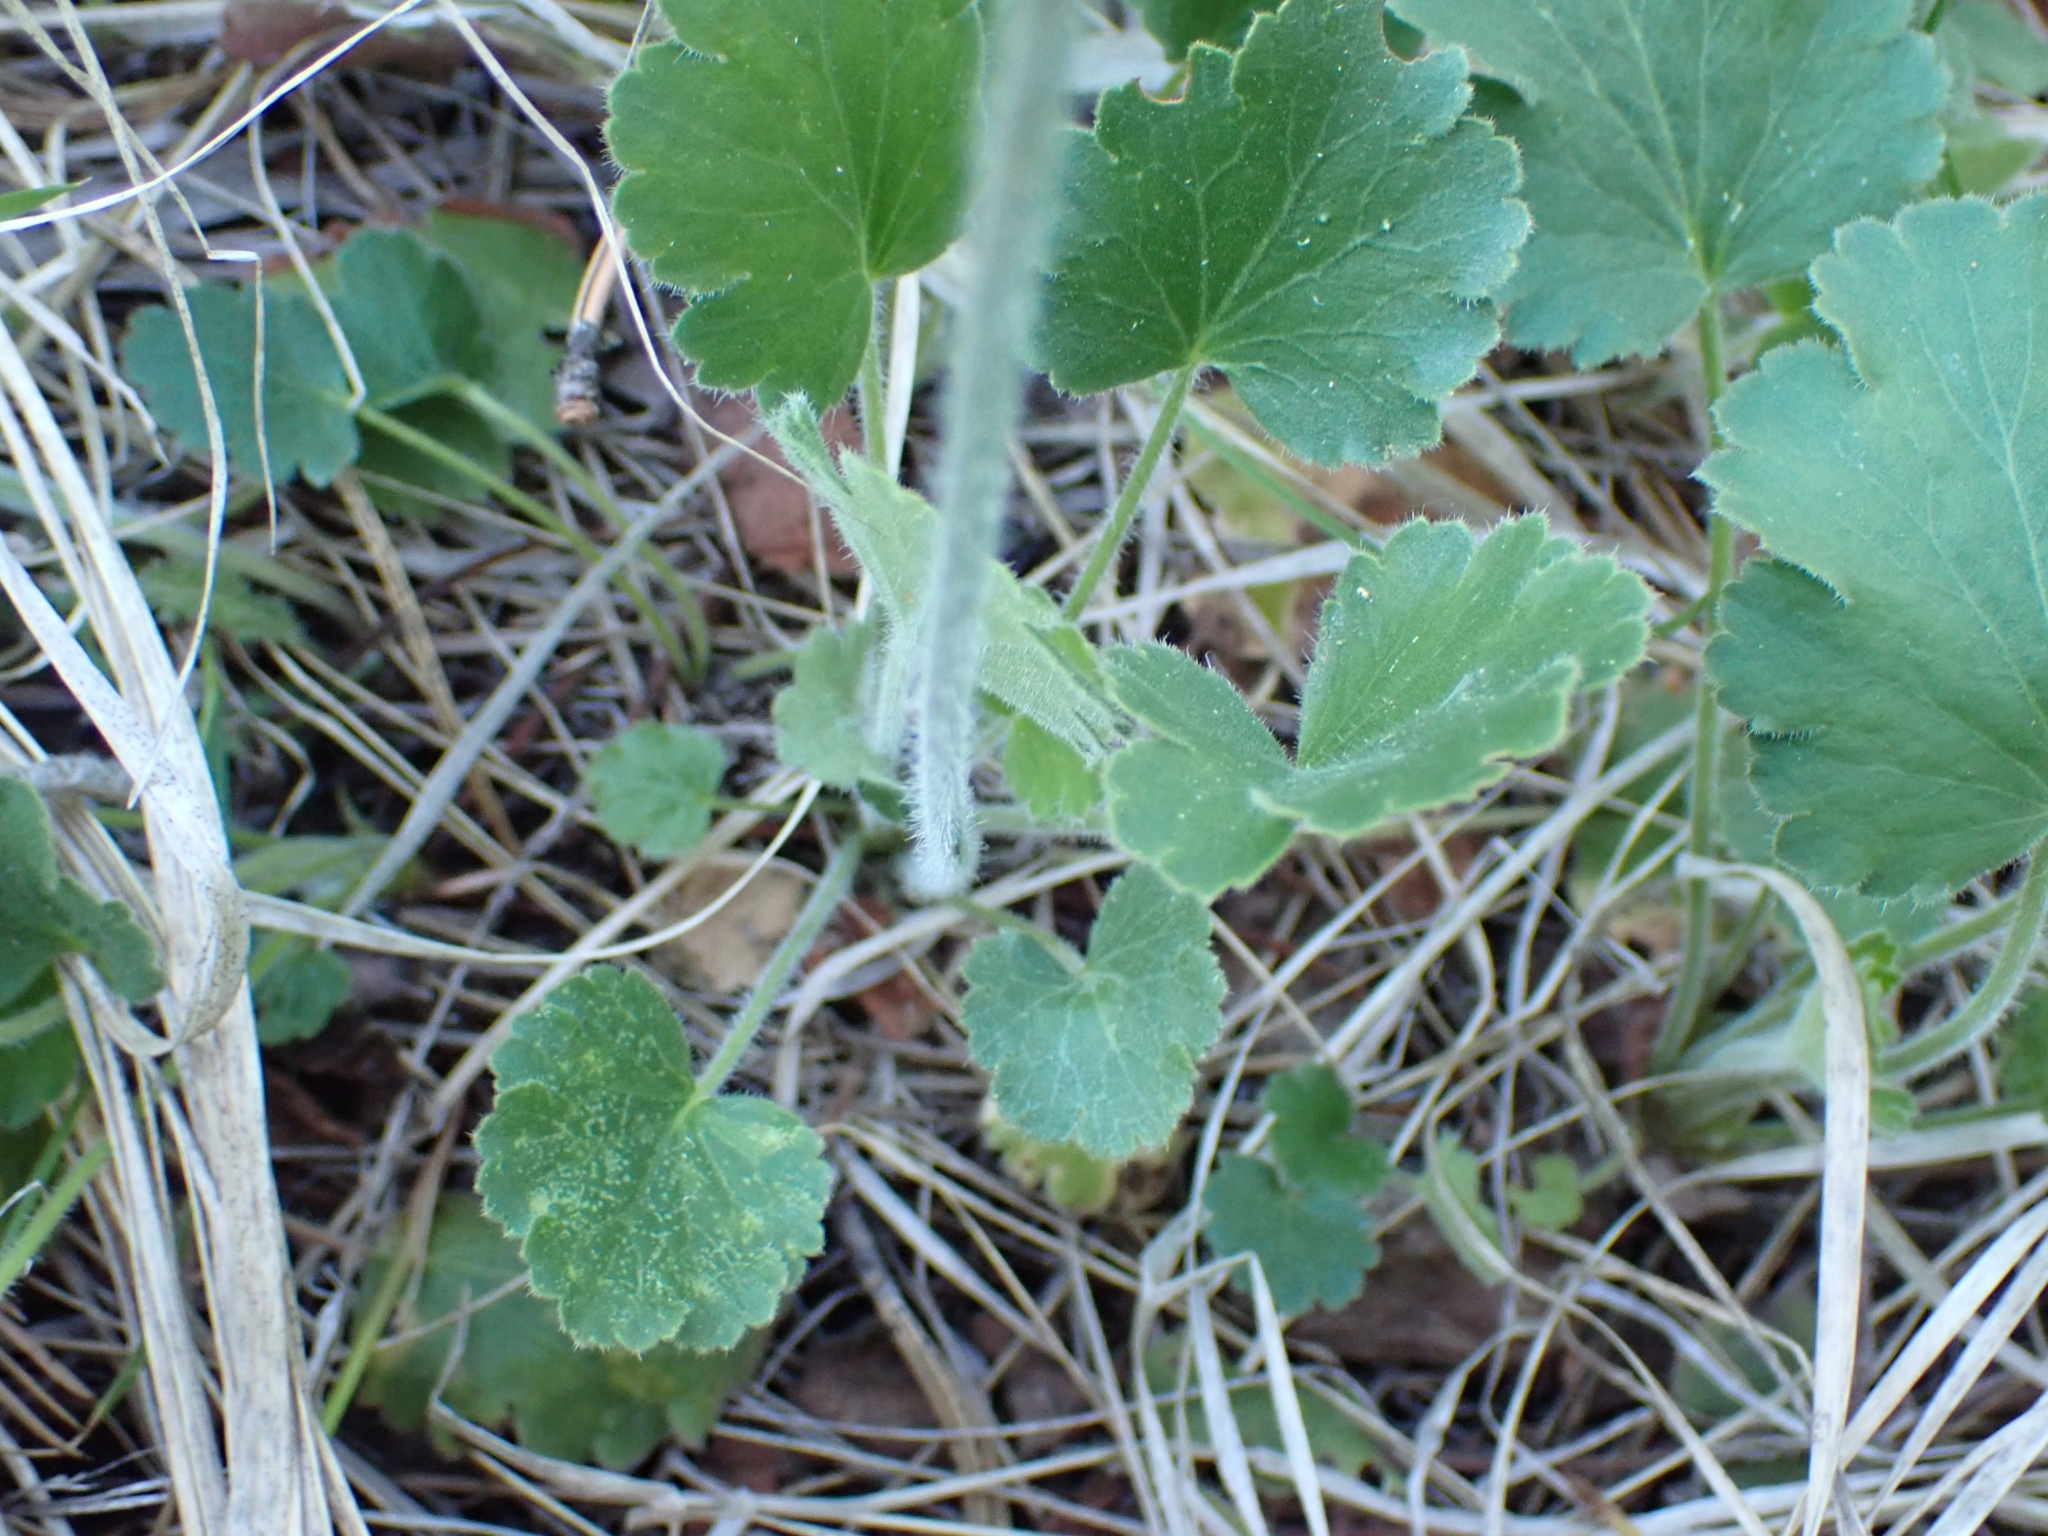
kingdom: Plantae
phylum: Tracheophyta
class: Magnoliopsida
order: Saxifragales
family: Saxifragaceae
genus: Heuchera
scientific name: Heuchera cylindrica
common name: Mat alumroot
